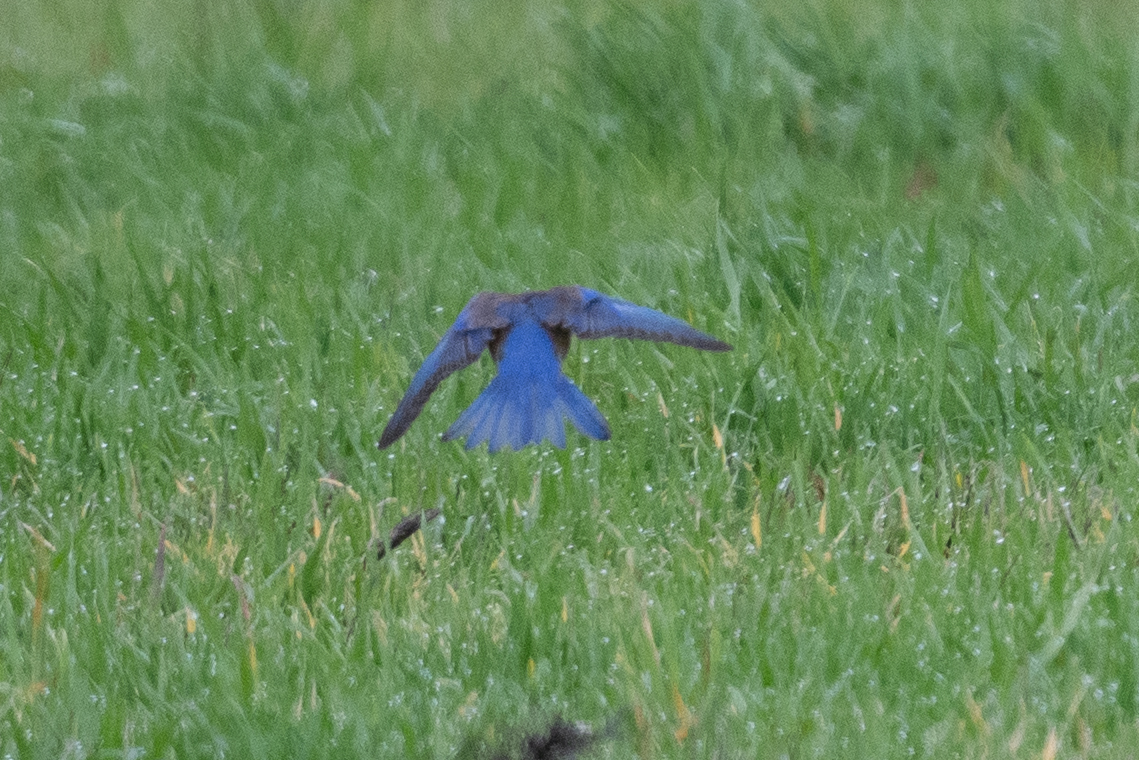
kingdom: Animalia
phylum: Chordata
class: Aves
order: Passeriformes
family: Turdidae
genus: Sialia
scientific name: Sialia mexicana
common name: Western bluebird
